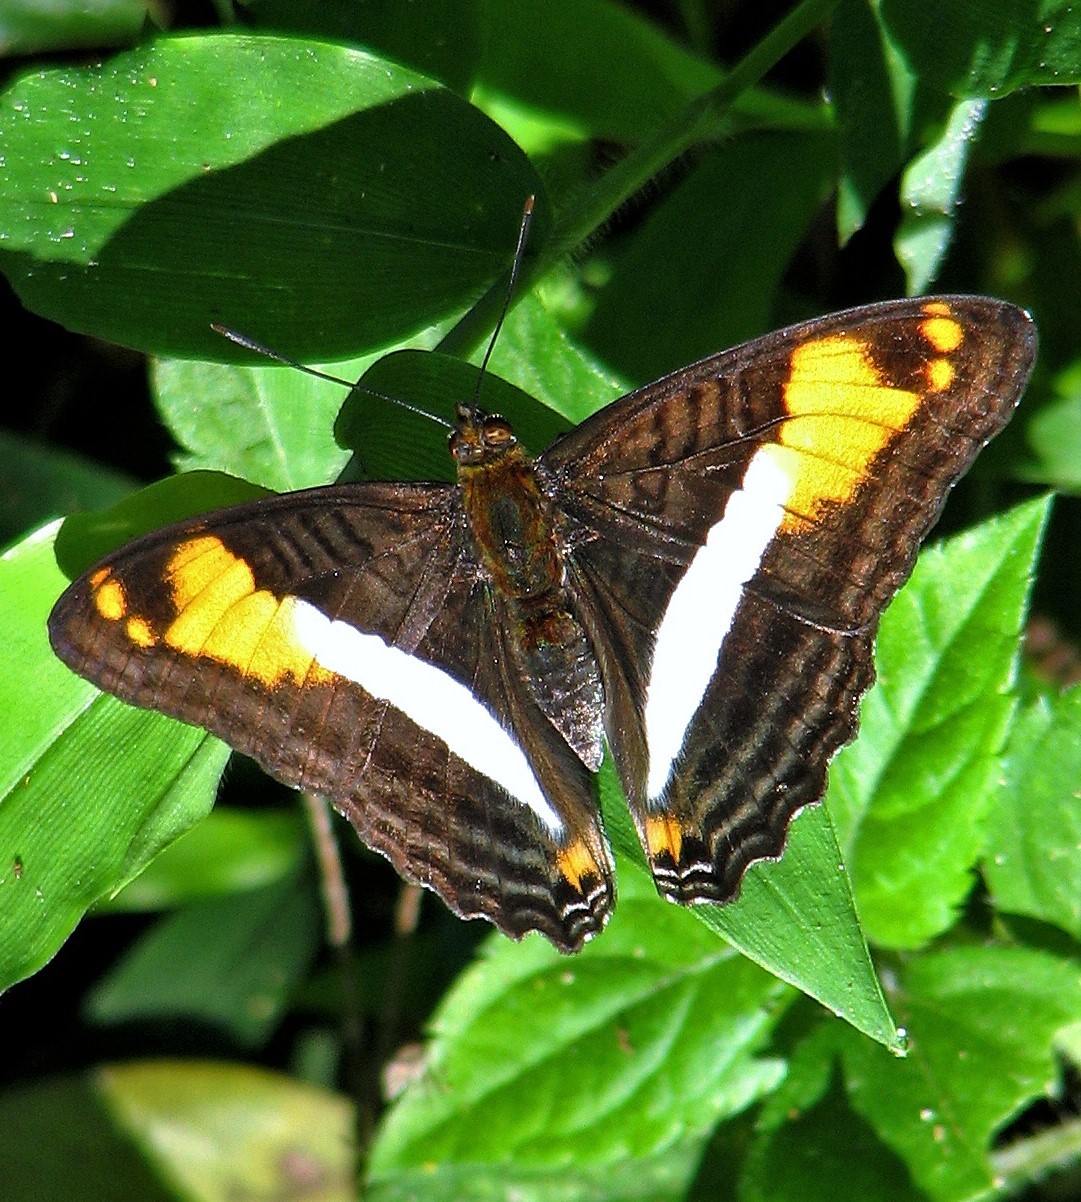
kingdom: Animalia
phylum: Arthropoda
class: Insecta
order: Lepidoptera
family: Nymphalidae
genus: Limenitis
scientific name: Limenitis malea
